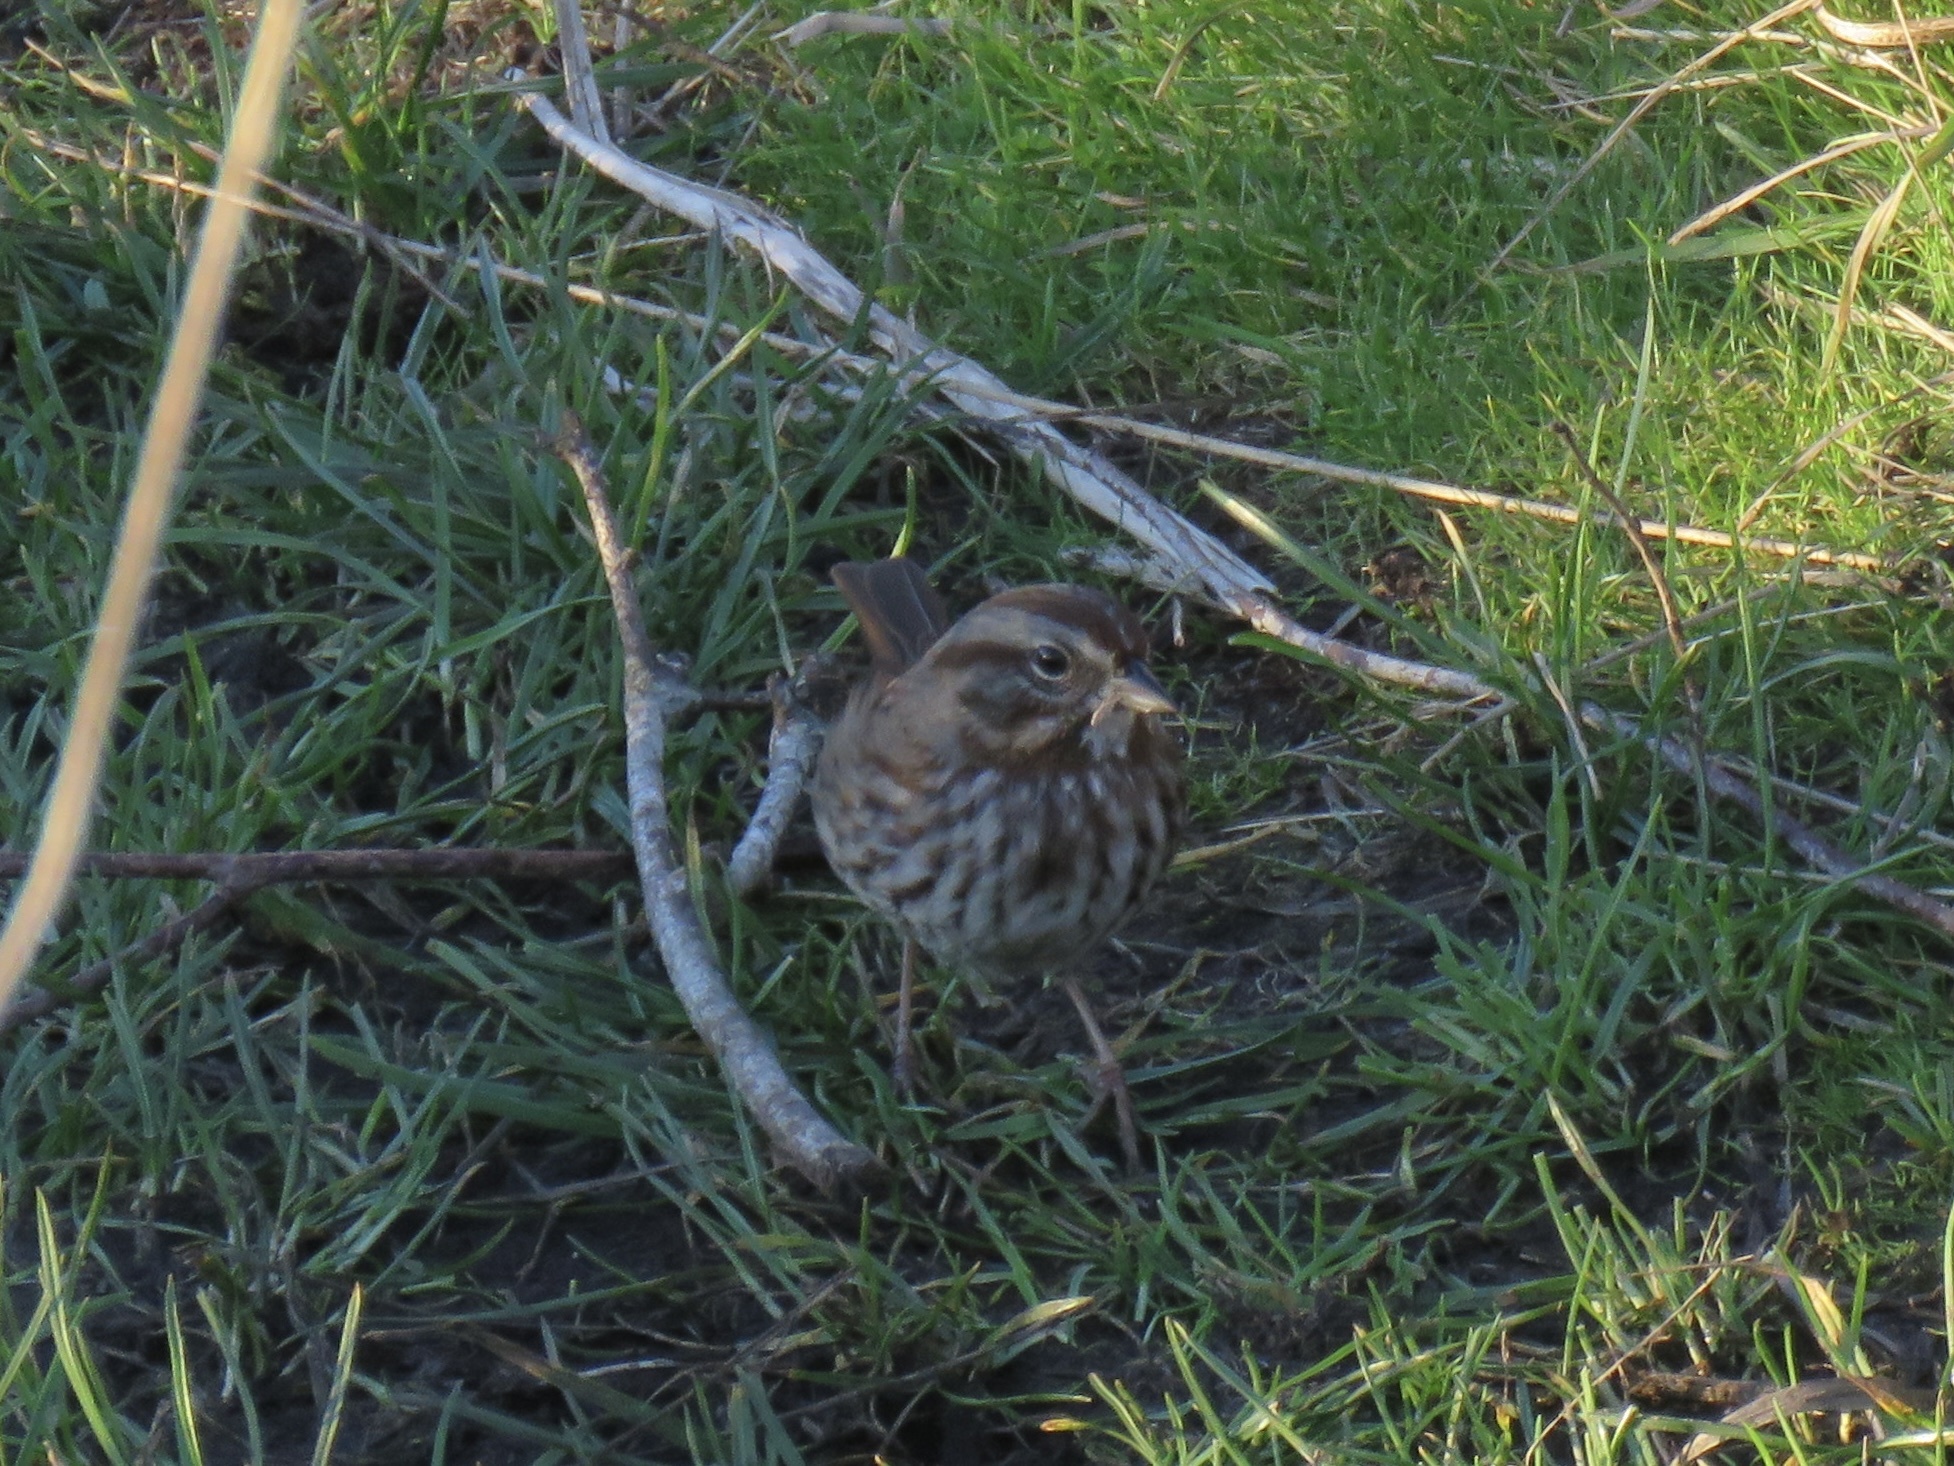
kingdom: Animalia
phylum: Chordata
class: Aves
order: Passeriformes
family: Passerellidae
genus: Melospiza
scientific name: Melospiza melodia
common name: Song sparrow
